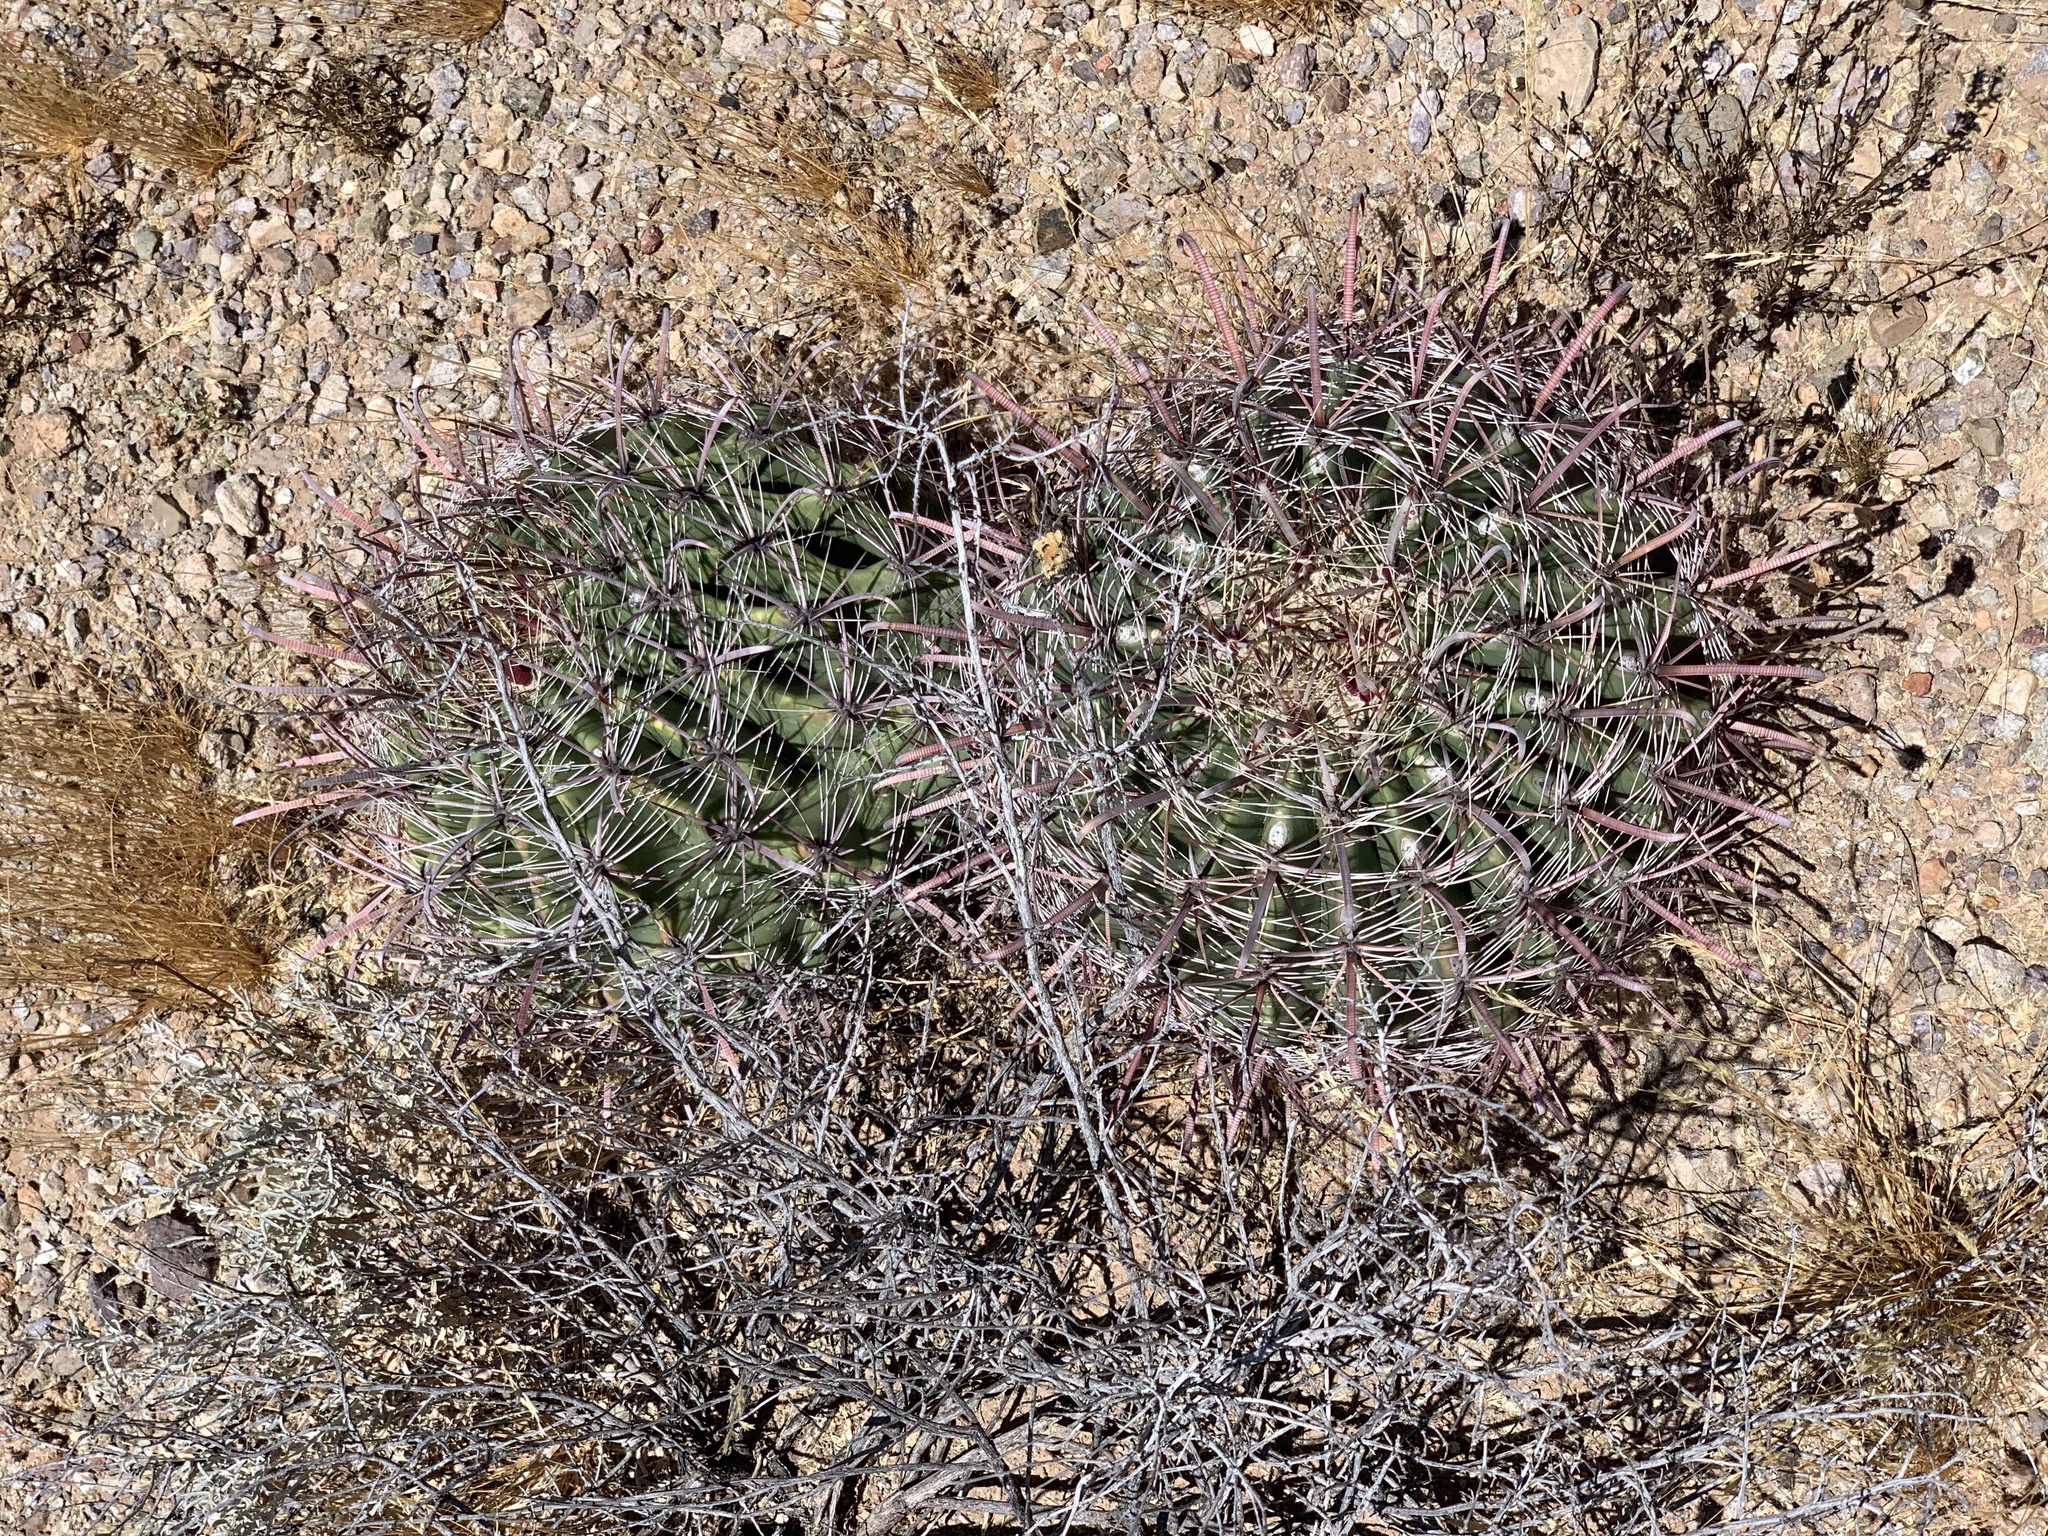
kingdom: Plantae
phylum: Tracheophyta
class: Magnoliopsida
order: Caryophyllales
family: Cactaceae
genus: Ferocactus
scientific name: Ferocactus wislizeni
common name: Candy barrel cactus
